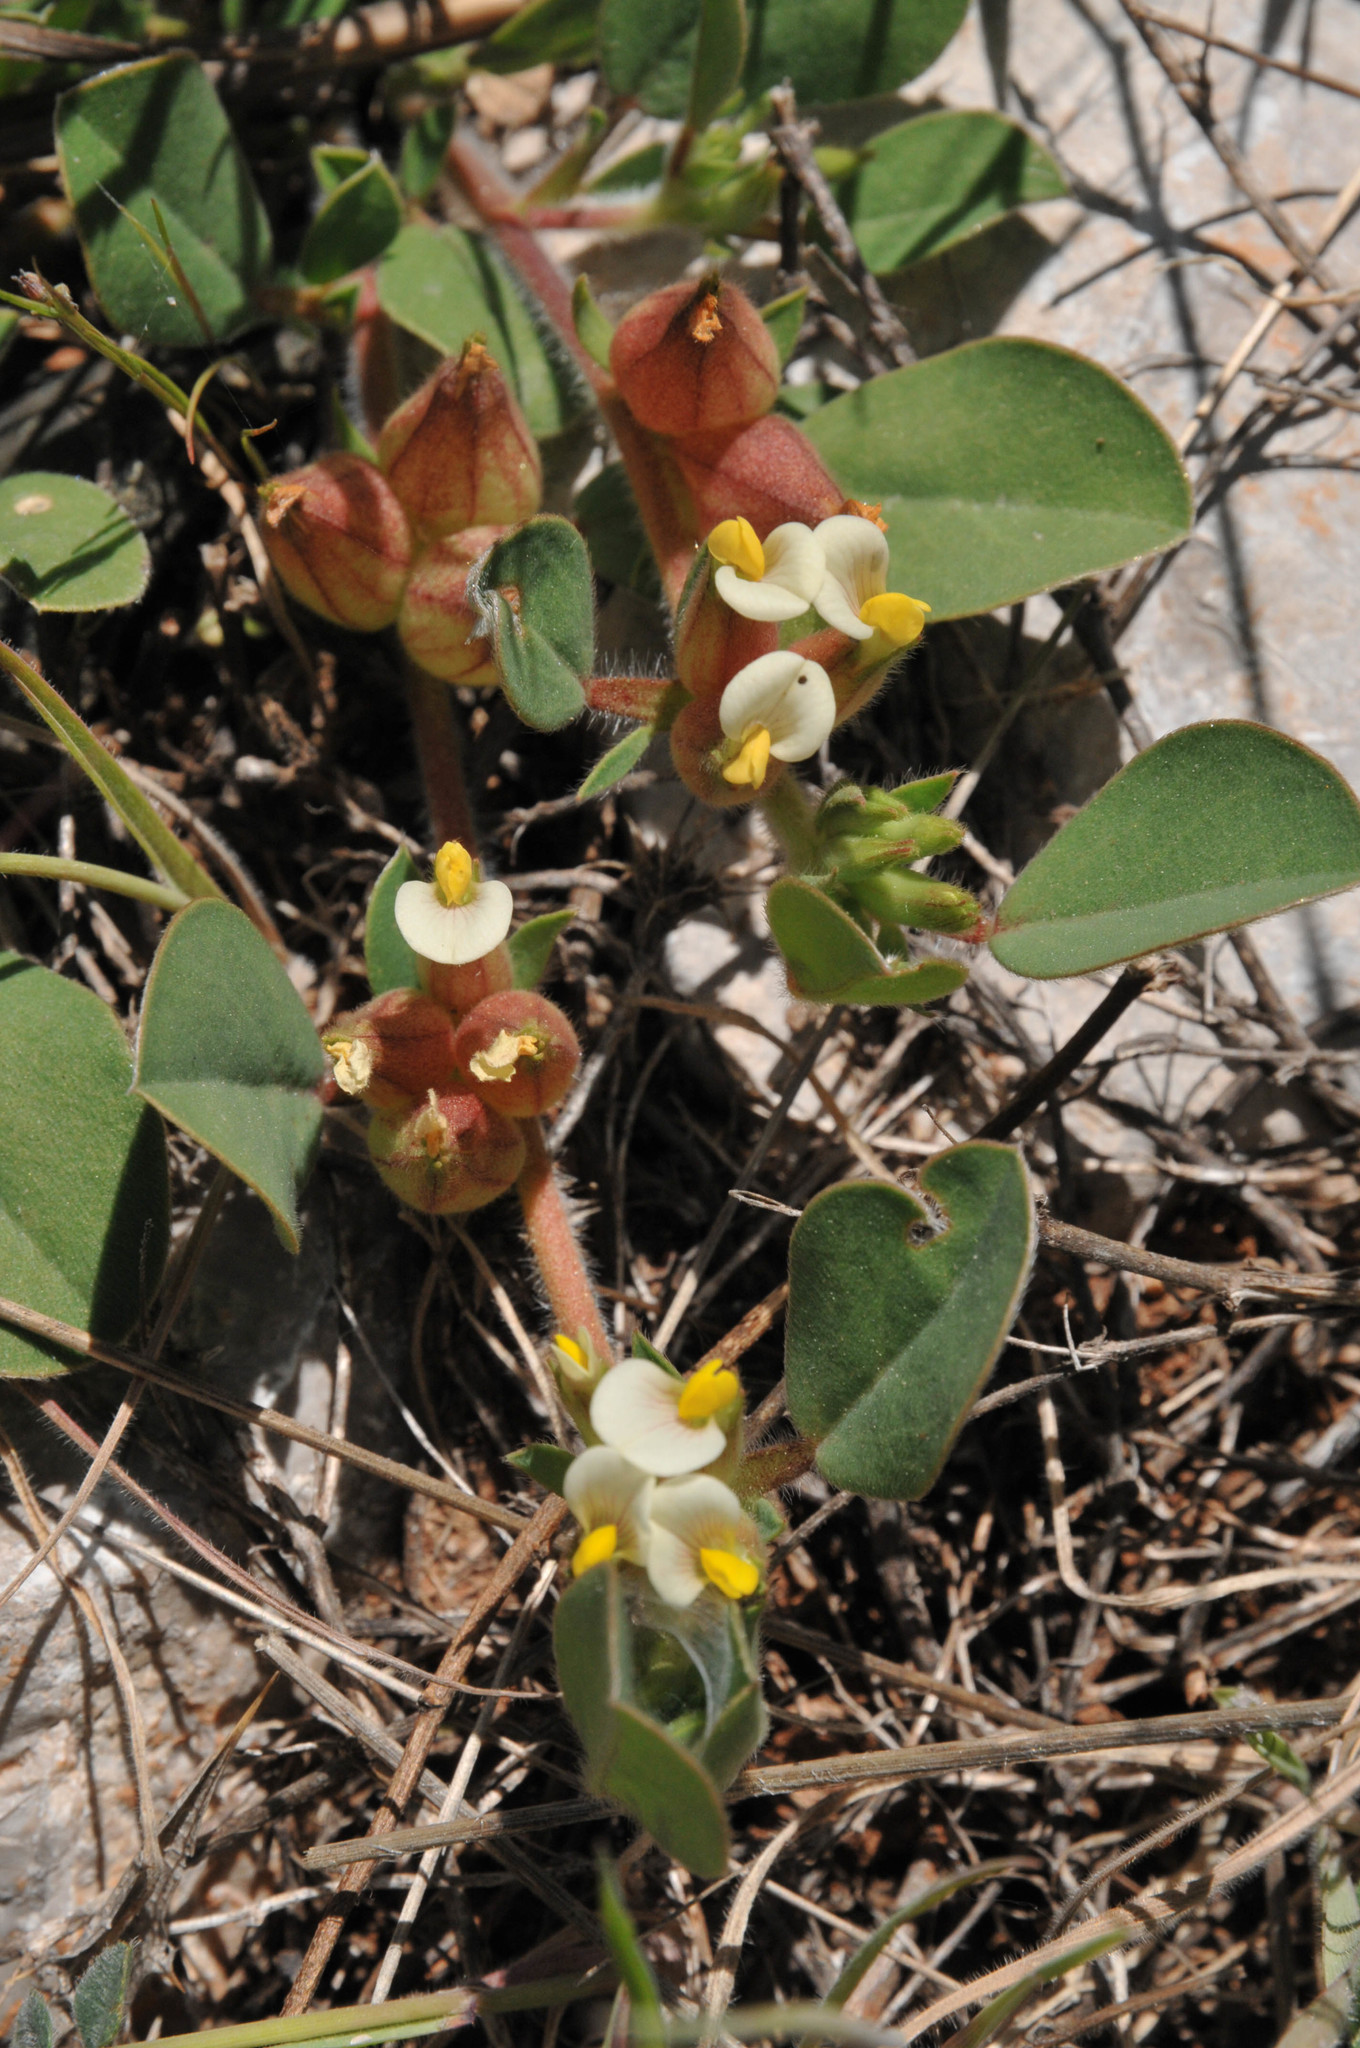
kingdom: Plantae
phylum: Tracheophyta
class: Magnoliopsida
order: Fabales
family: Fabaceae
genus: Tripodion
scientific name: Tripodion tetraphyllum
